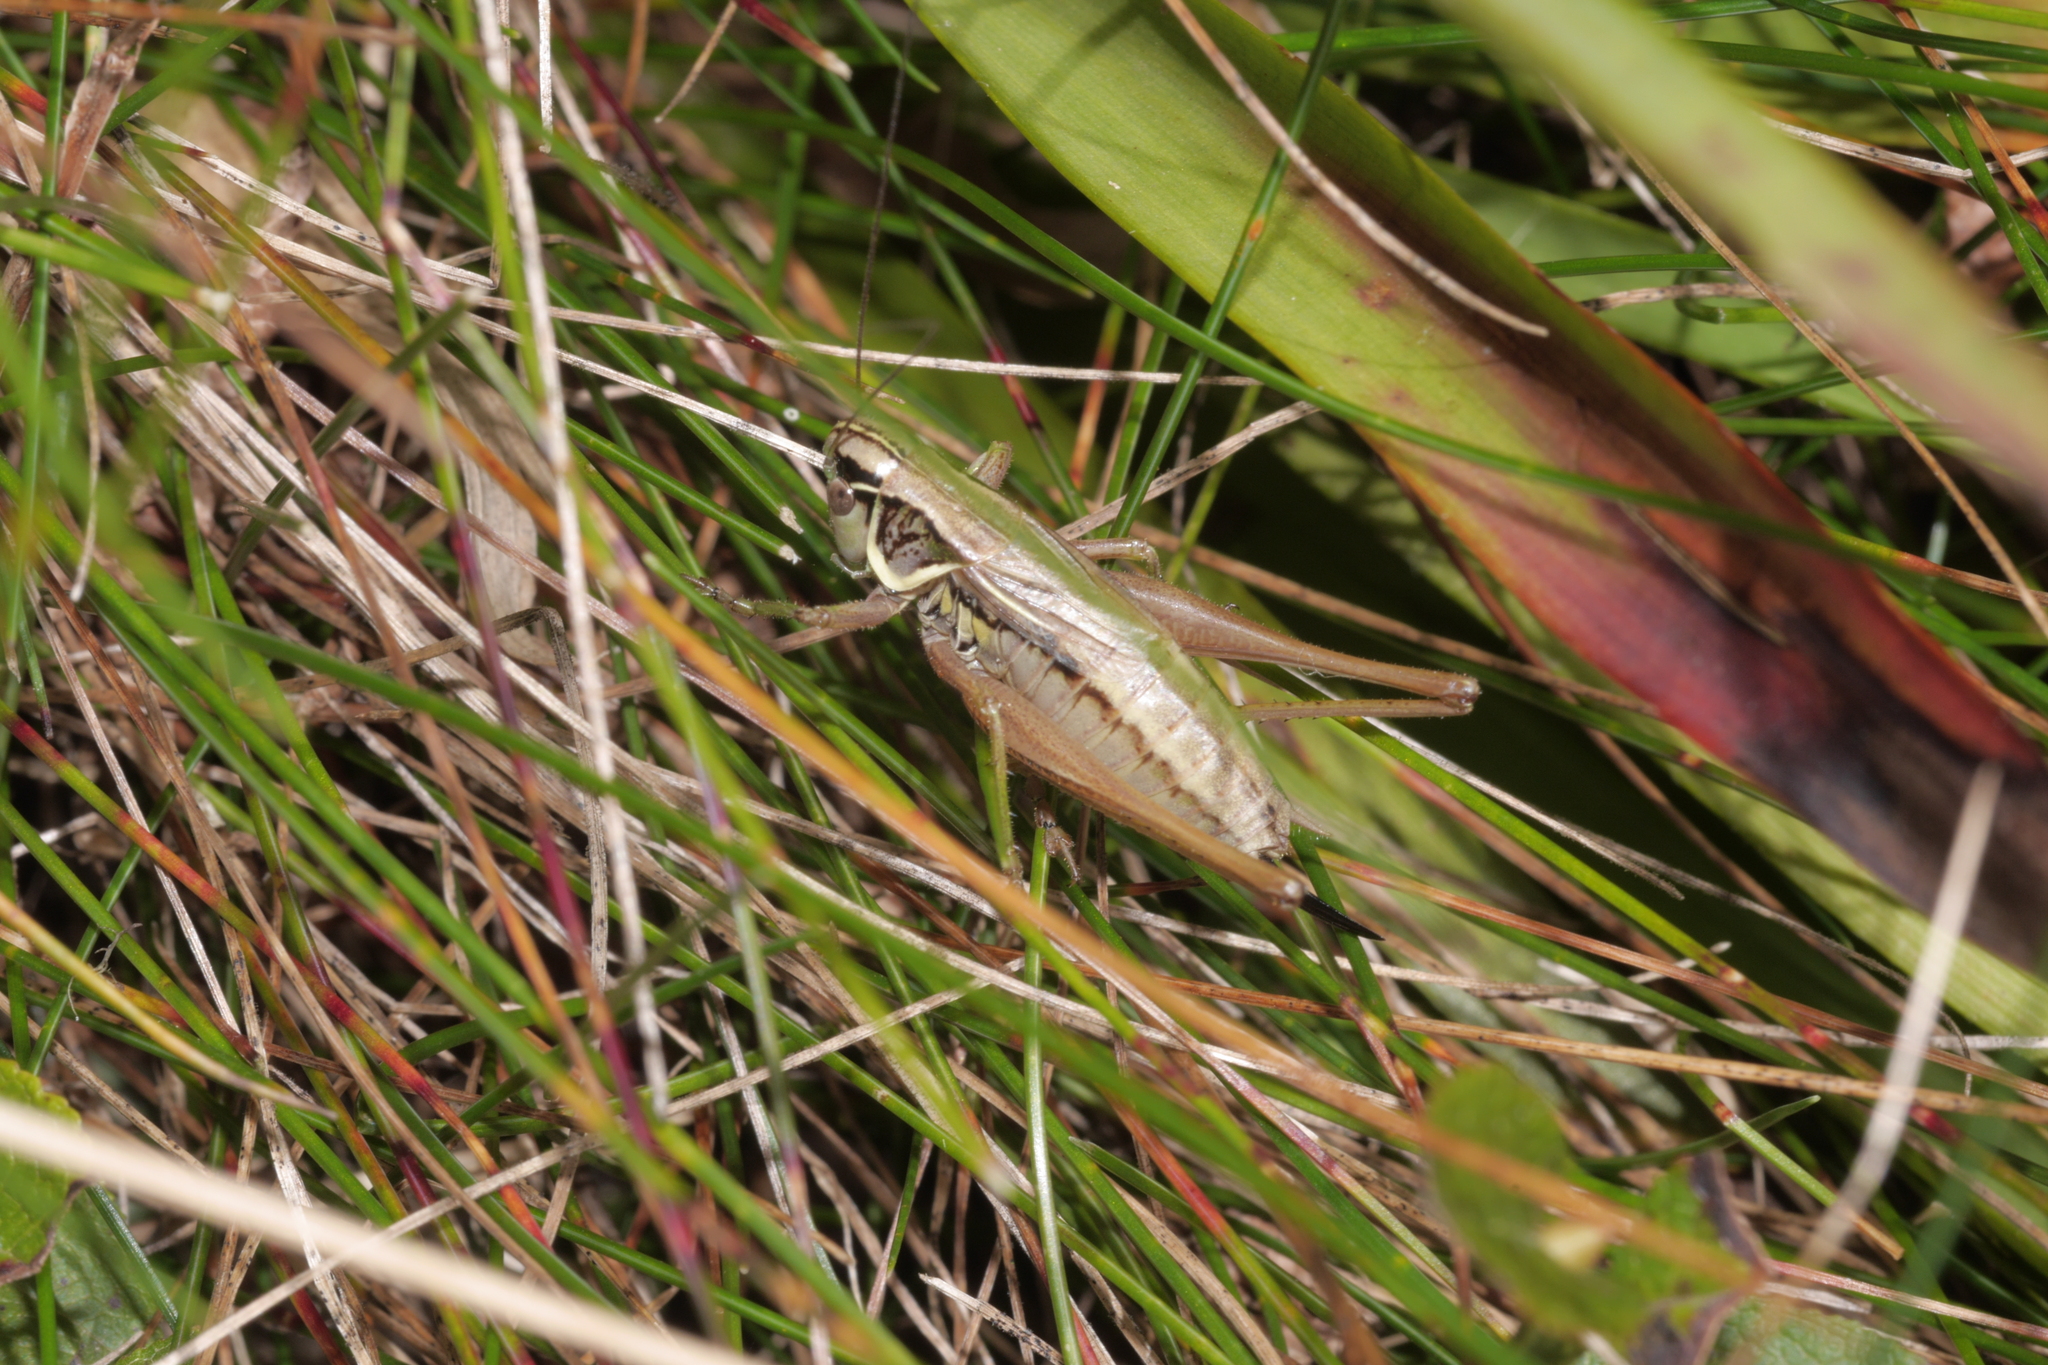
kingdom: Animalia
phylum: Arthropoda
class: Insecta
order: Orthoptera
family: Tettigoniidae
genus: Roeseliana
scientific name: Roeseliana roeselii
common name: Roesel's bush cricket
